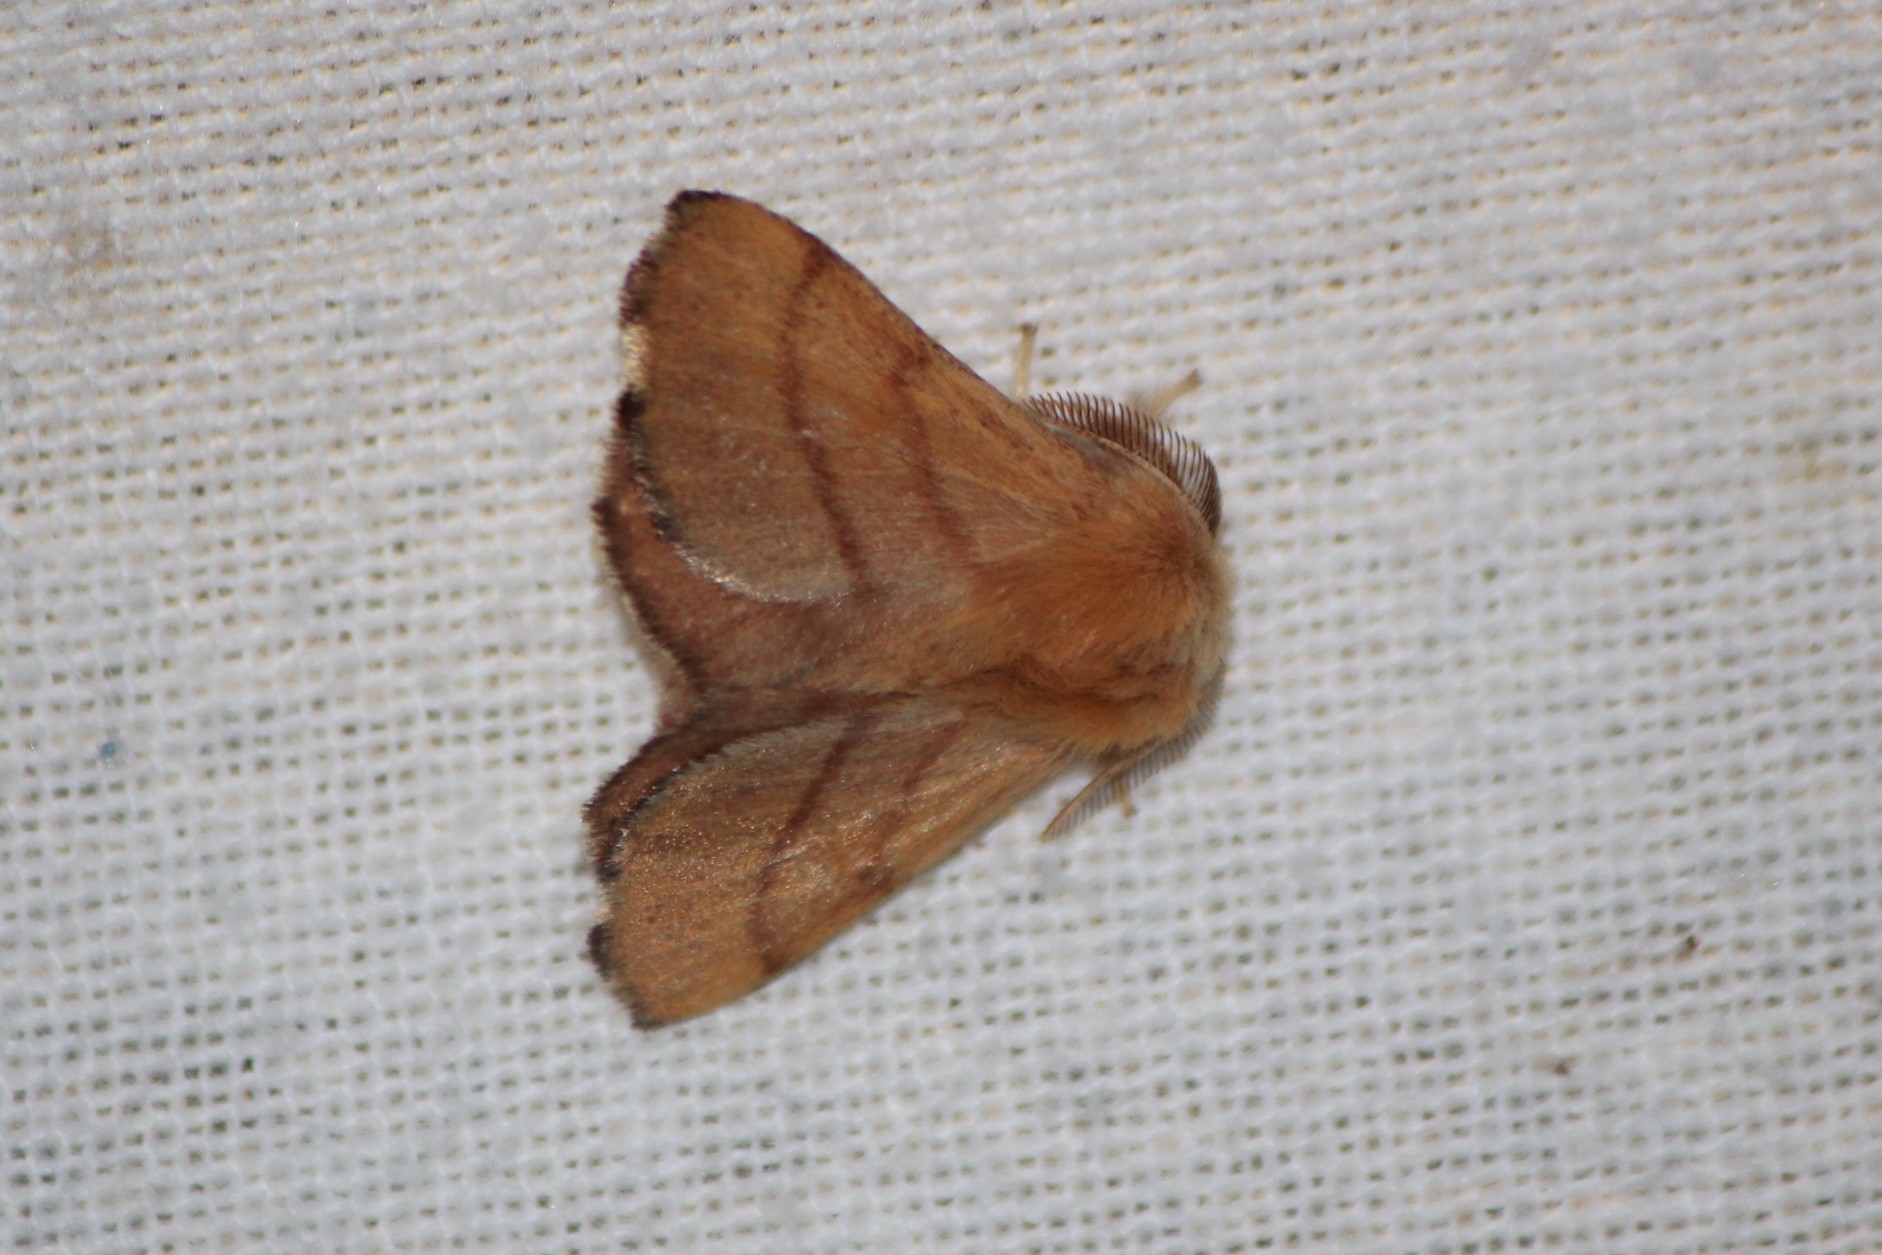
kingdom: Animalia
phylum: Arthropoda
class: Insecta
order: Lepidoptera
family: Lasiocampidae
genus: Malacosoma
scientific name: Malacosoma disstria
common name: Forest tent caterpillar
